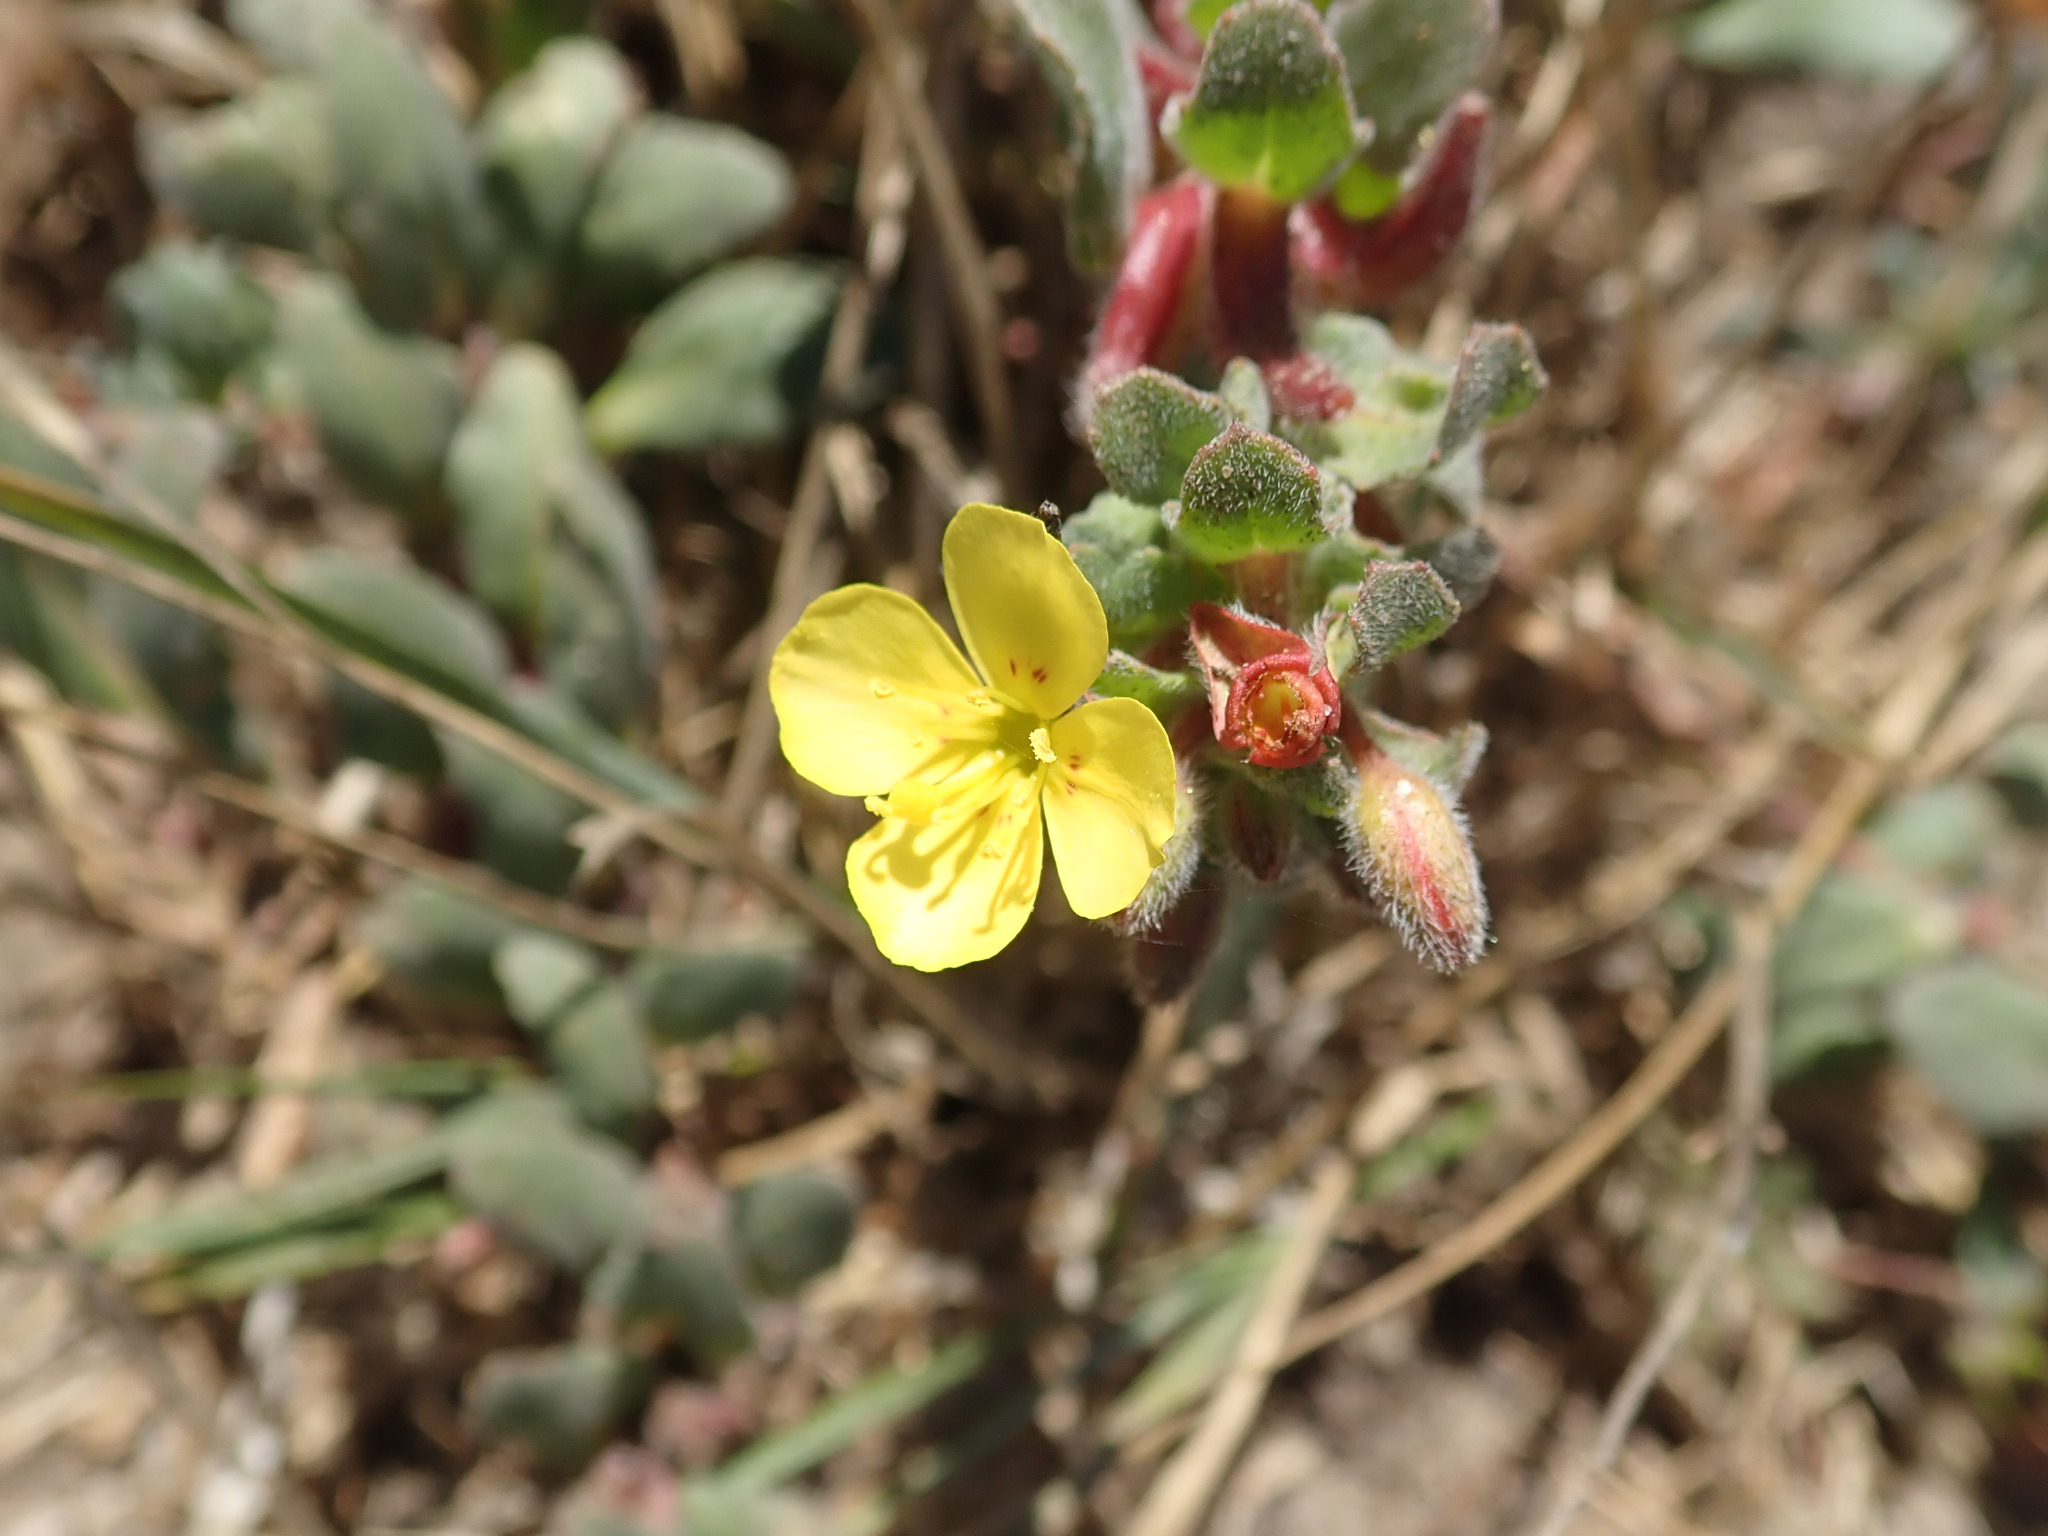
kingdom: Plantae
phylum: Tracheophyta
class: Magnoliopsida
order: Myrtales
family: Onagraceae
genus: Camissoniopsis
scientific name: Camissoniopsis cheiranthifolia
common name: Beach suncup
